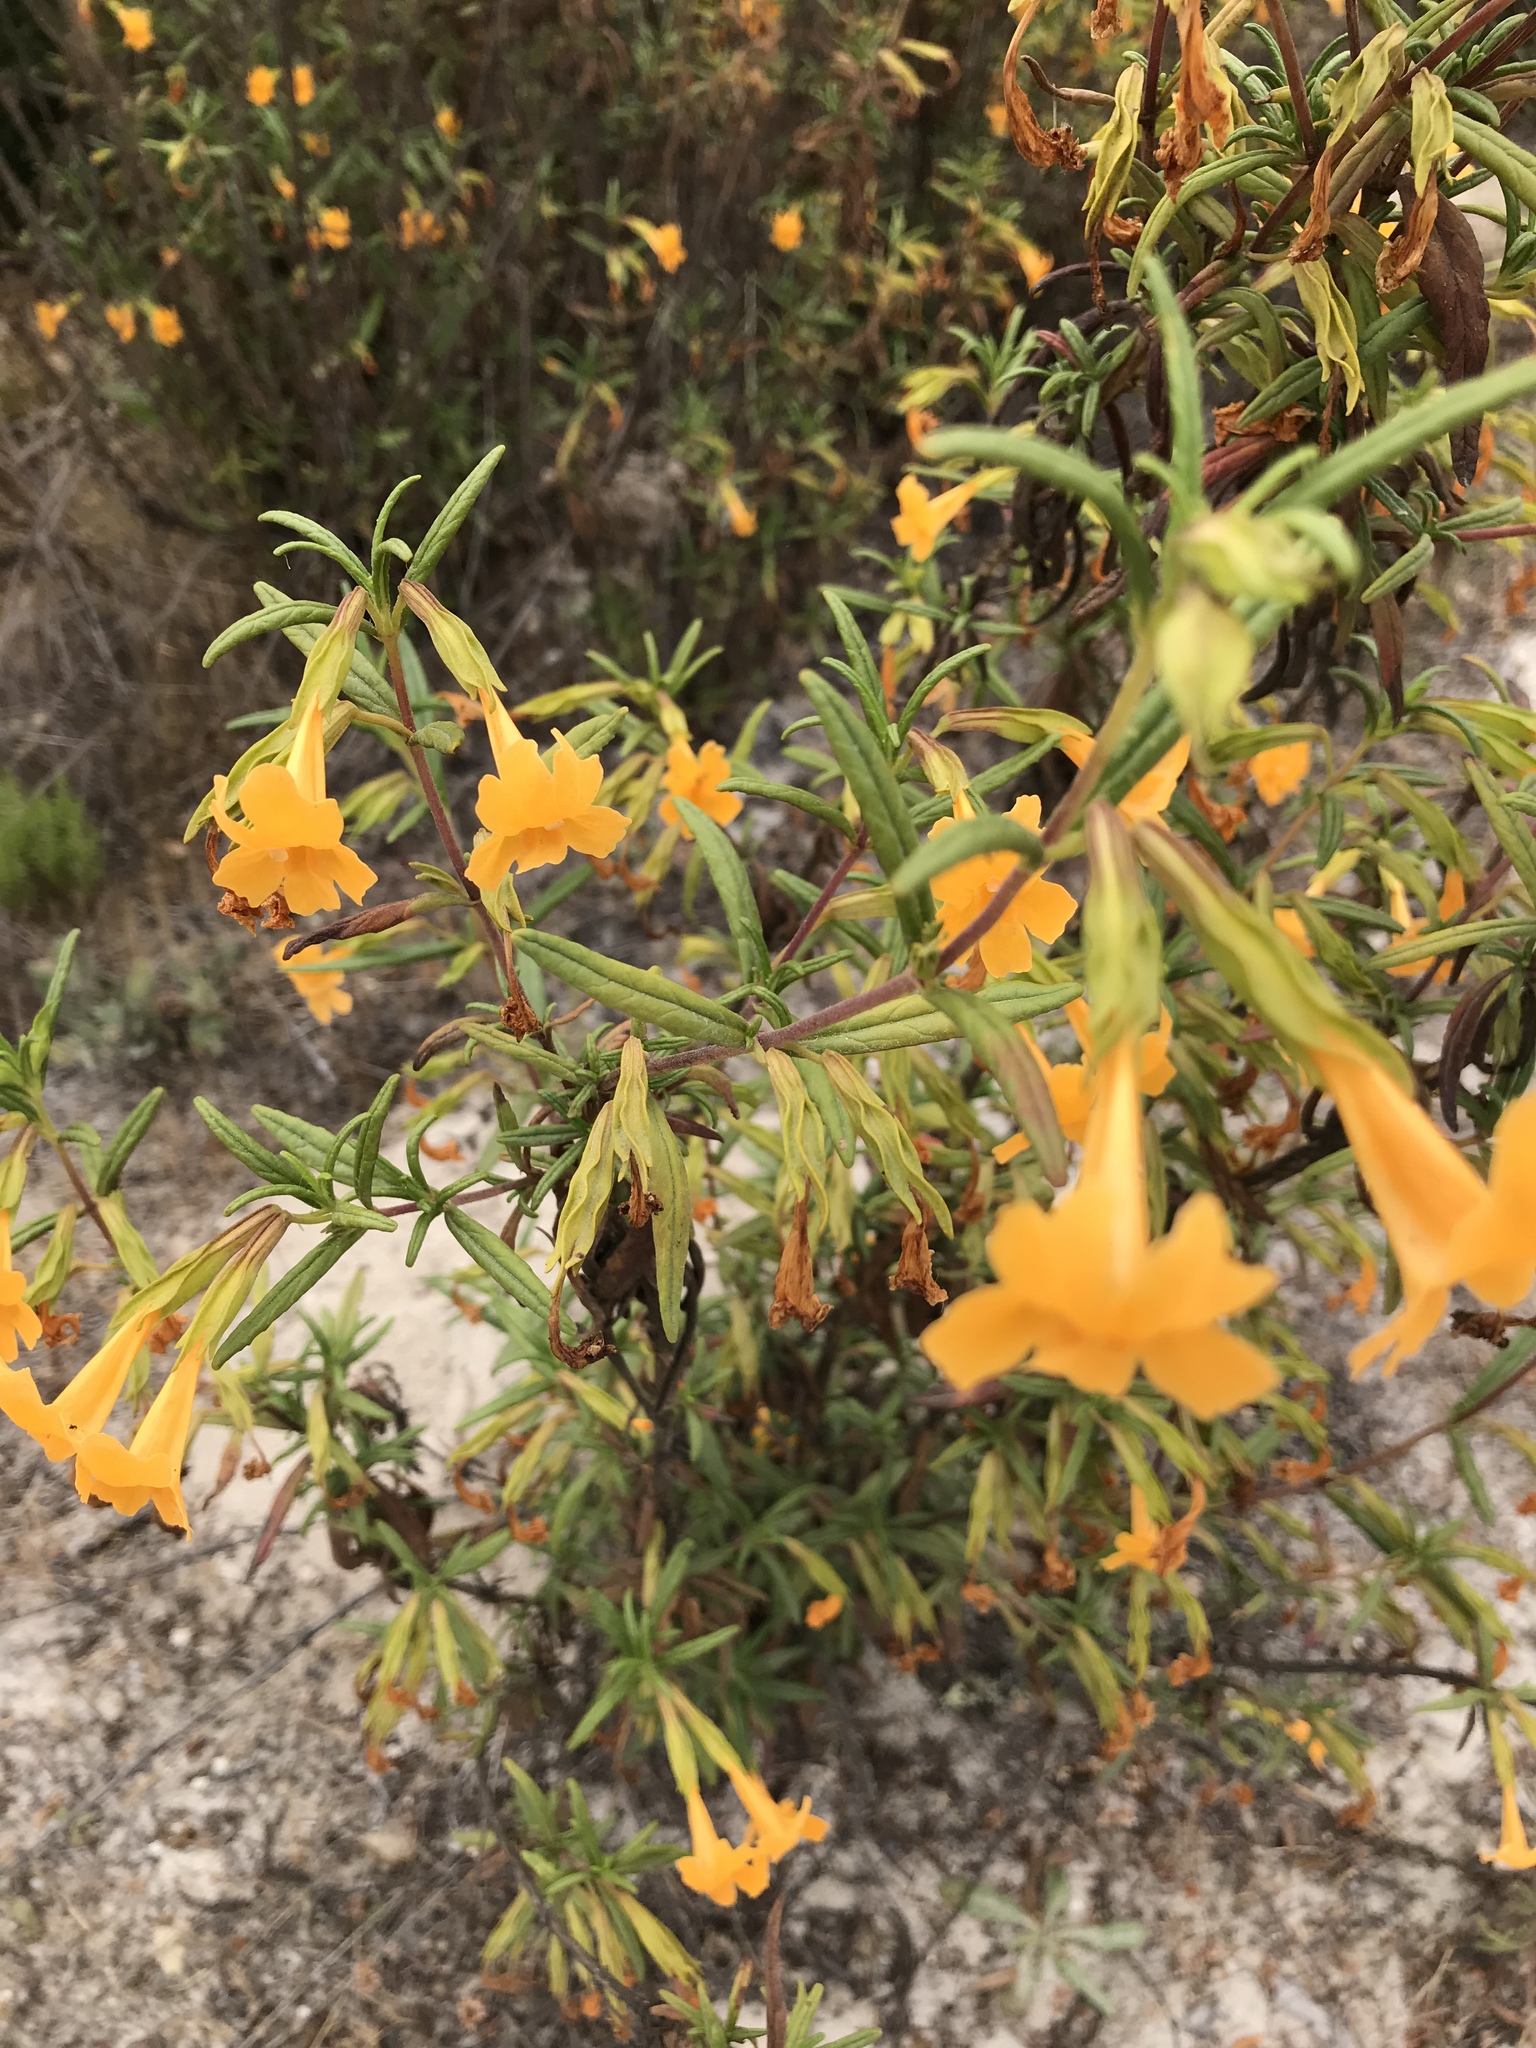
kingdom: Plantae
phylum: Tracheophyta
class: Magnoliopsida
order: Lamiales
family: Phrymaceae
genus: Diplacus
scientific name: Diplacus aurantiacus
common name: Bush monkey-flower
